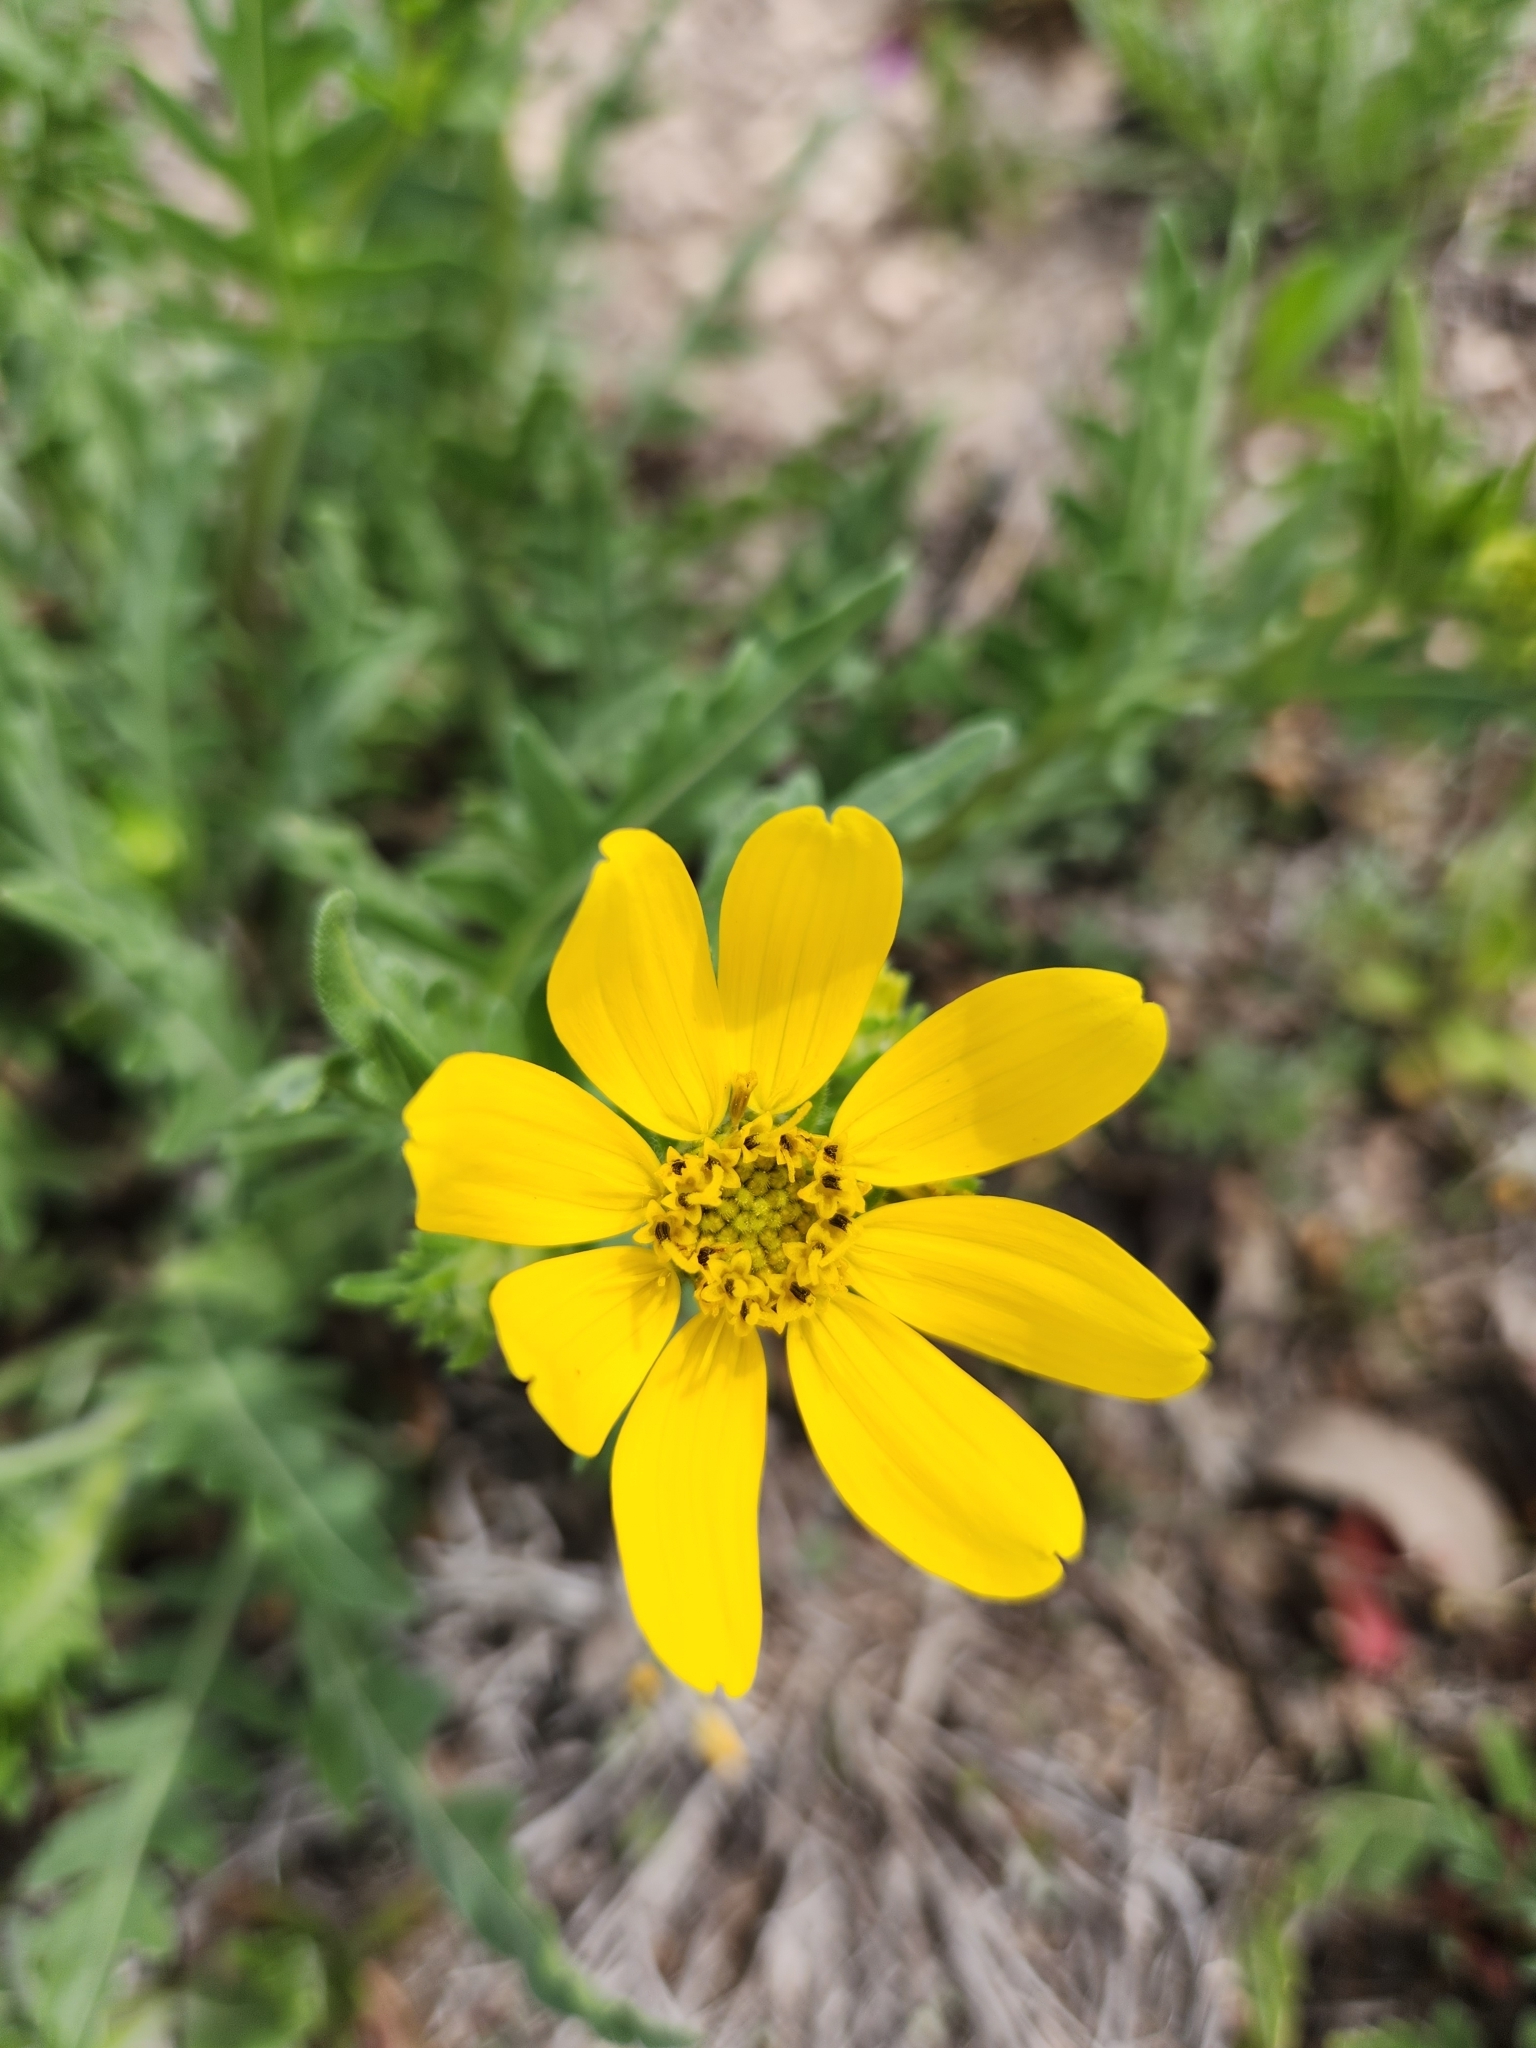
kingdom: Plantae
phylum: Tracheophyta
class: Magnoliopsida
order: Asterales
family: Asteraceae
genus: Engelmannia
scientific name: Engelmannia peristenia
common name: Engelmann's daisy
